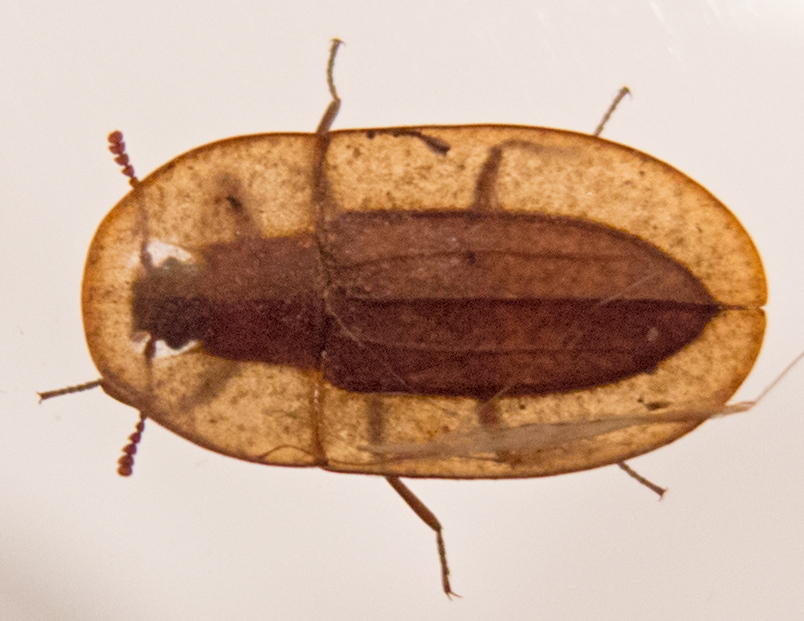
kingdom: Animalia
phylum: Arthropoda
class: Insecta
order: Coleoptera
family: Tenebrionidae
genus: Cossyphus
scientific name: Cossyphus tauricus
